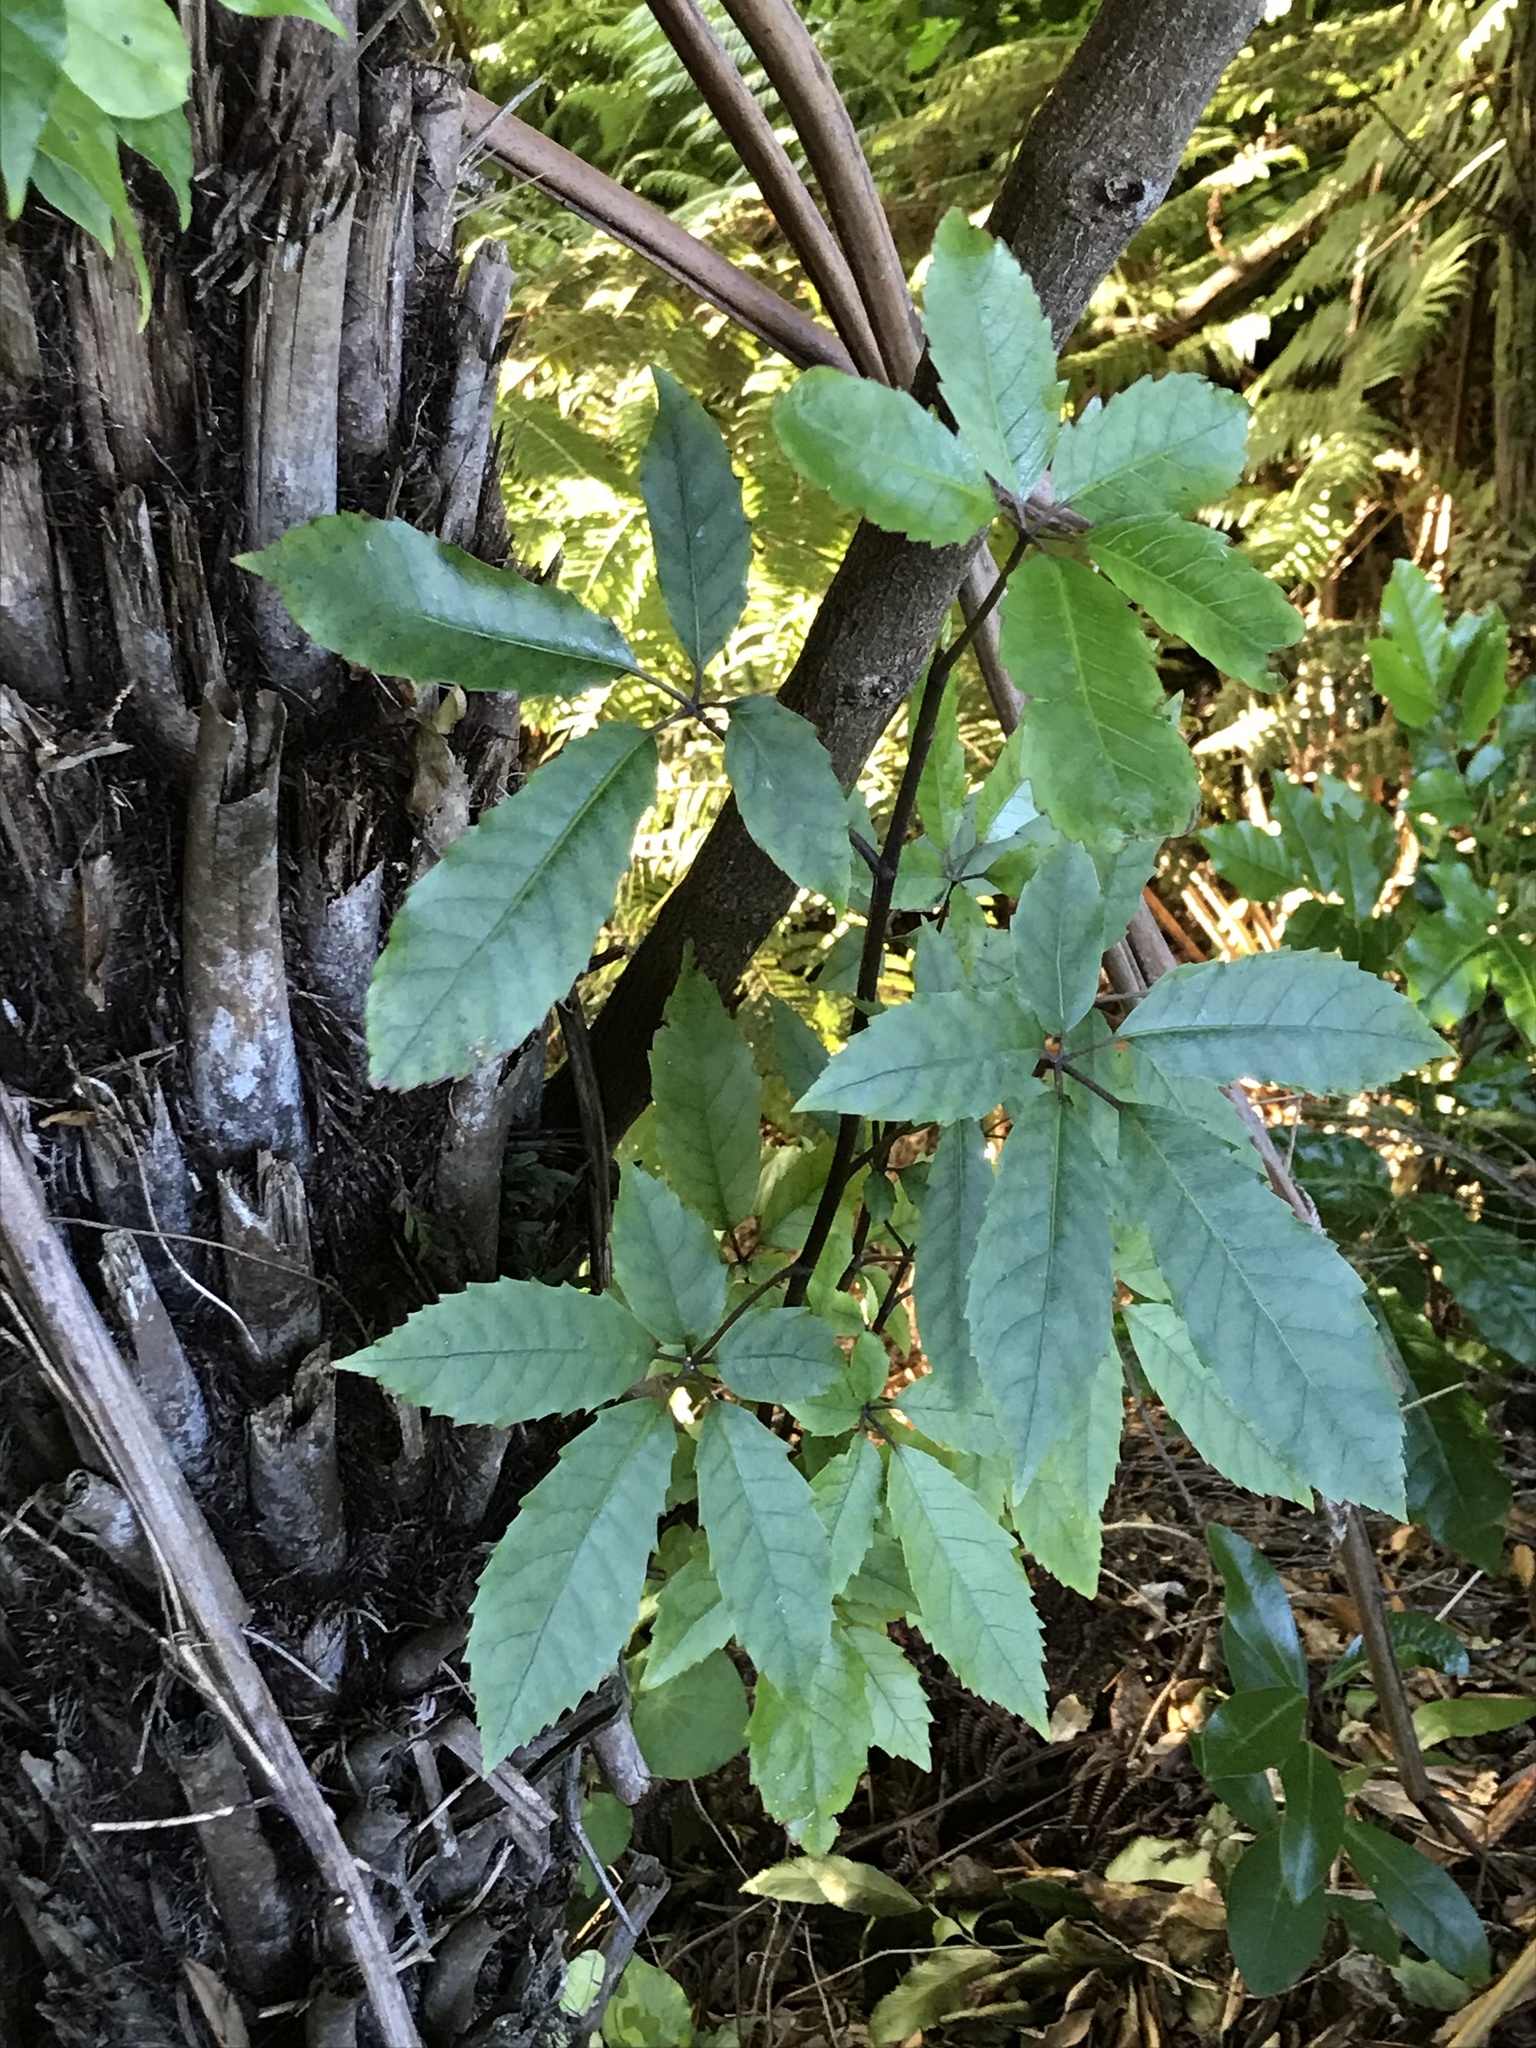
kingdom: Plantae
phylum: Tracheophyta
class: Magnoliopsida
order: Apiales
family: Araliaceae
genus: Neopanax
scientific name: Neopanax arboreus
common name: Five-fingers
